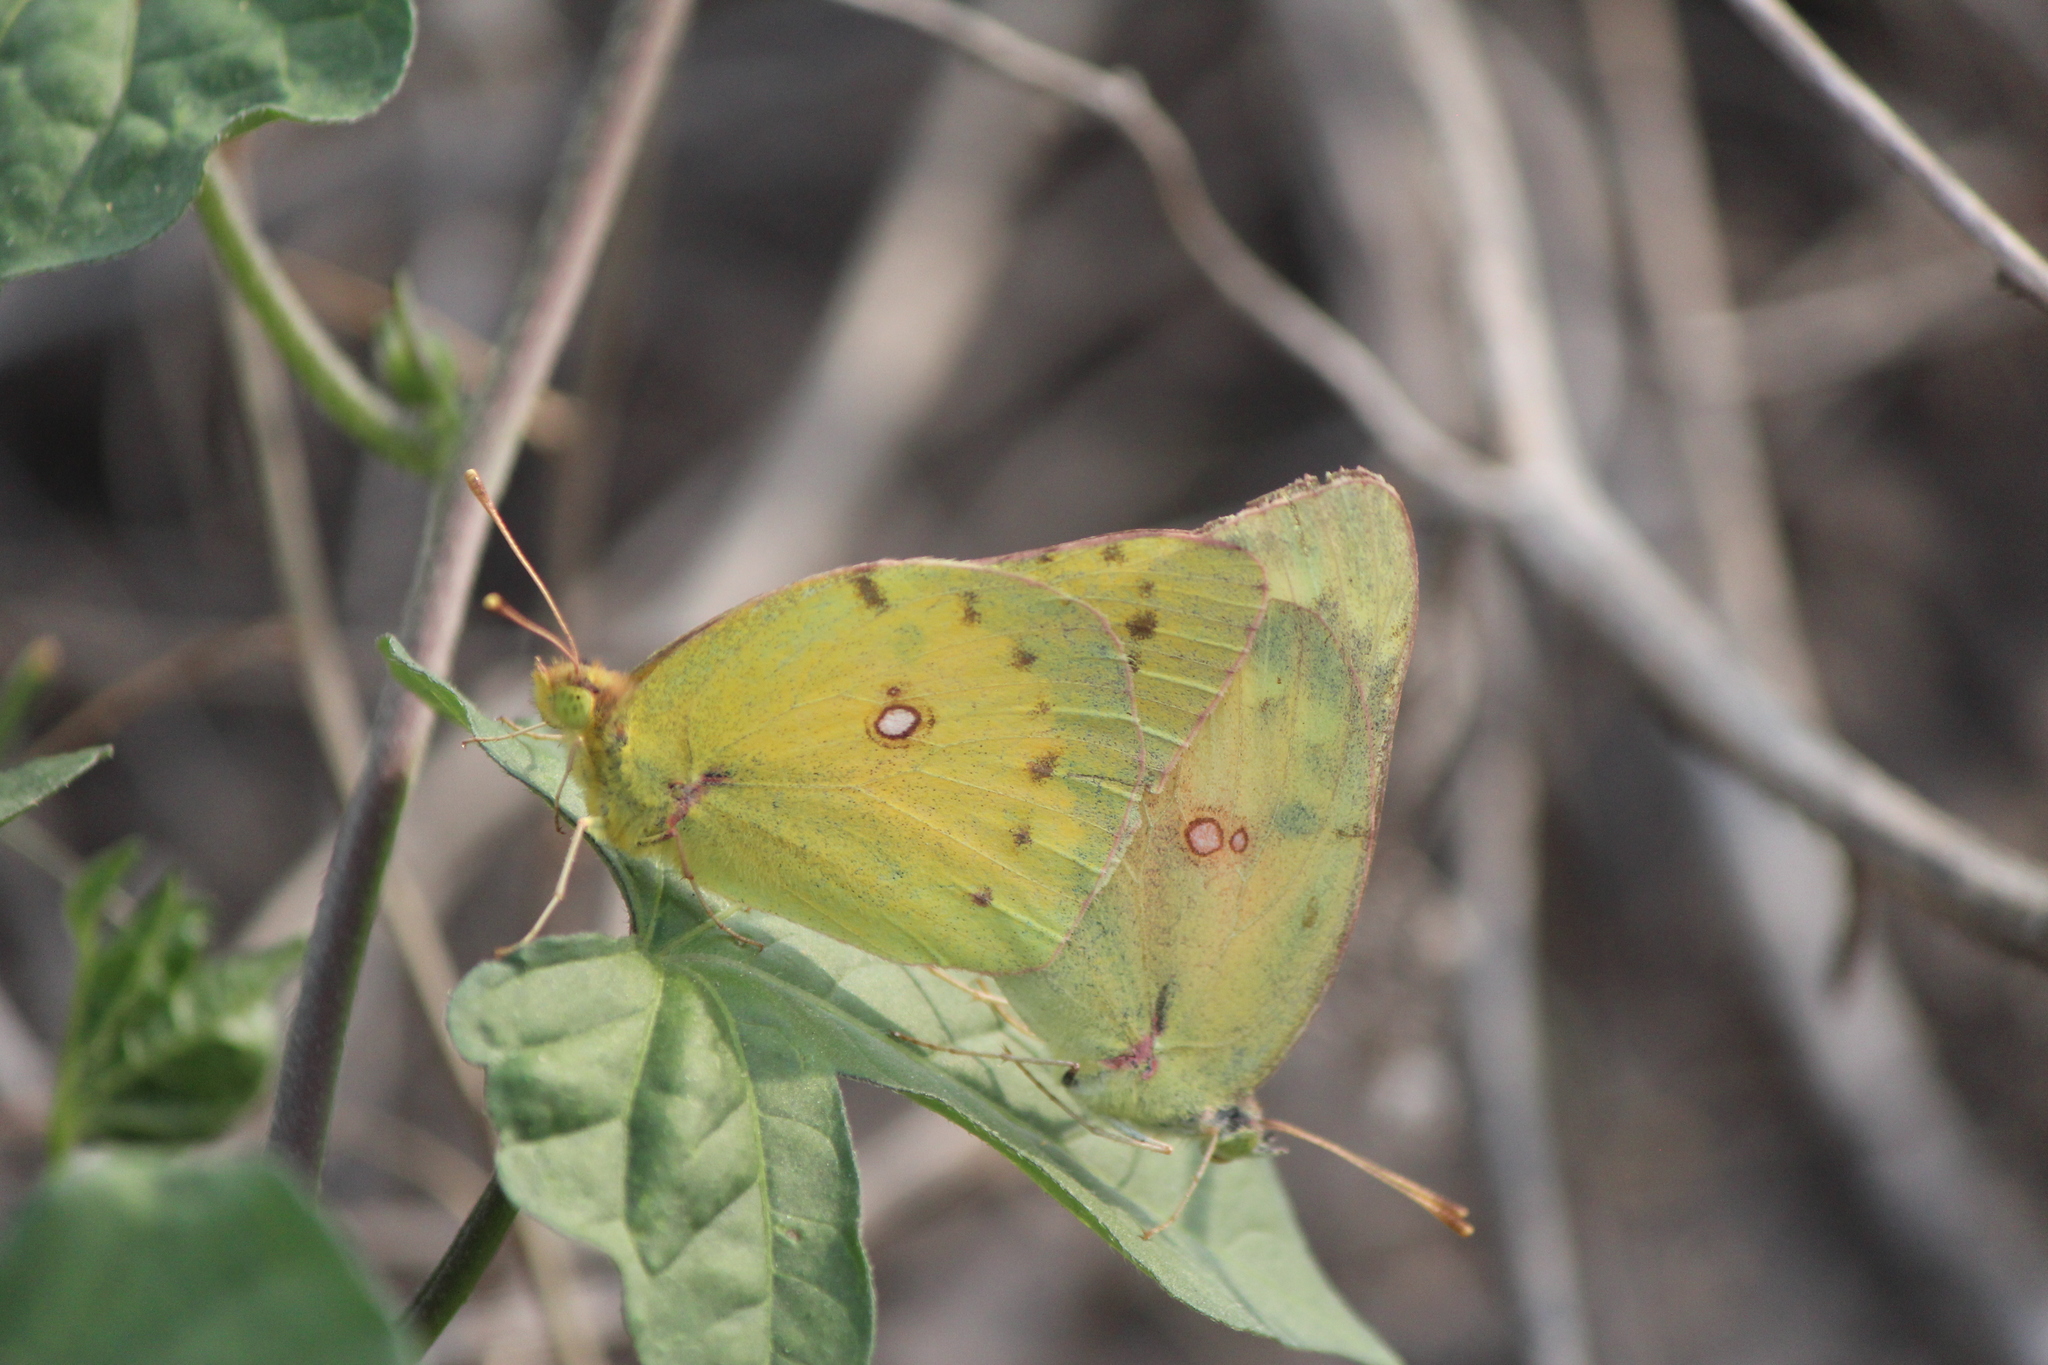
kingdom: Animalia
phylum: Arthropoda
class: Insecta
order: Lepidoptera
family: Pieridae
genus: Colias
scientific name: Colias eurytheme
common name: Alfalfa butterfly
